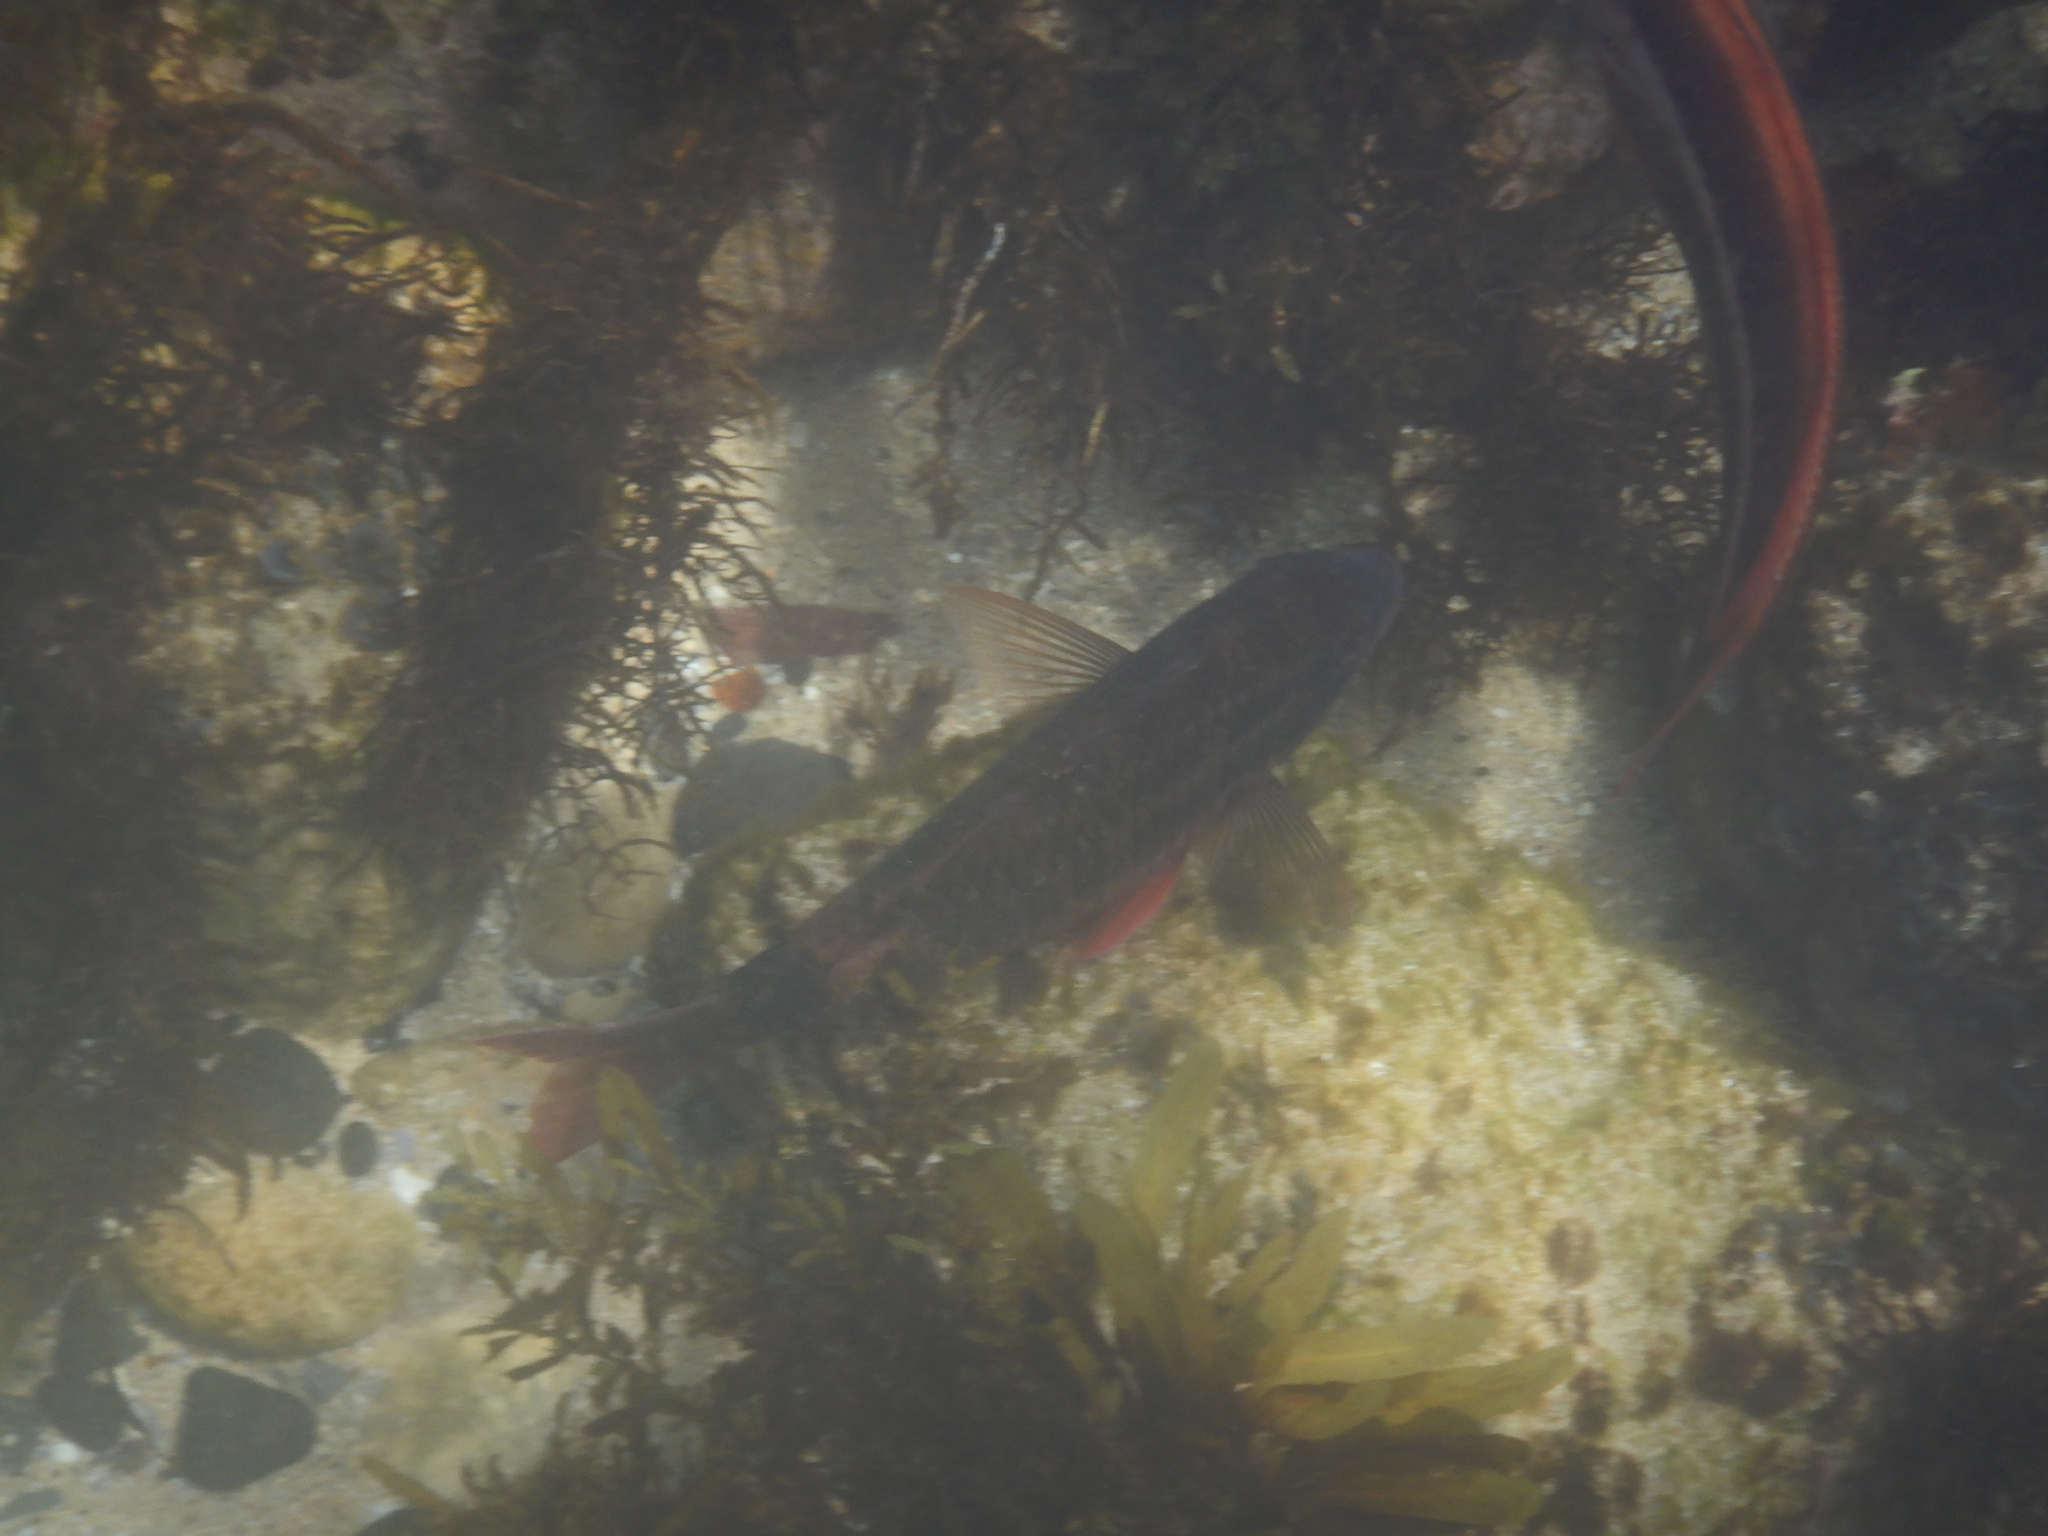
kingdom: Animalia
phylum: Chordata
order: Perciformes
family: Mullidae
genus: Parupeneus
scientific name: Parupeneus spilurus
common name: Blackspot goatfish
